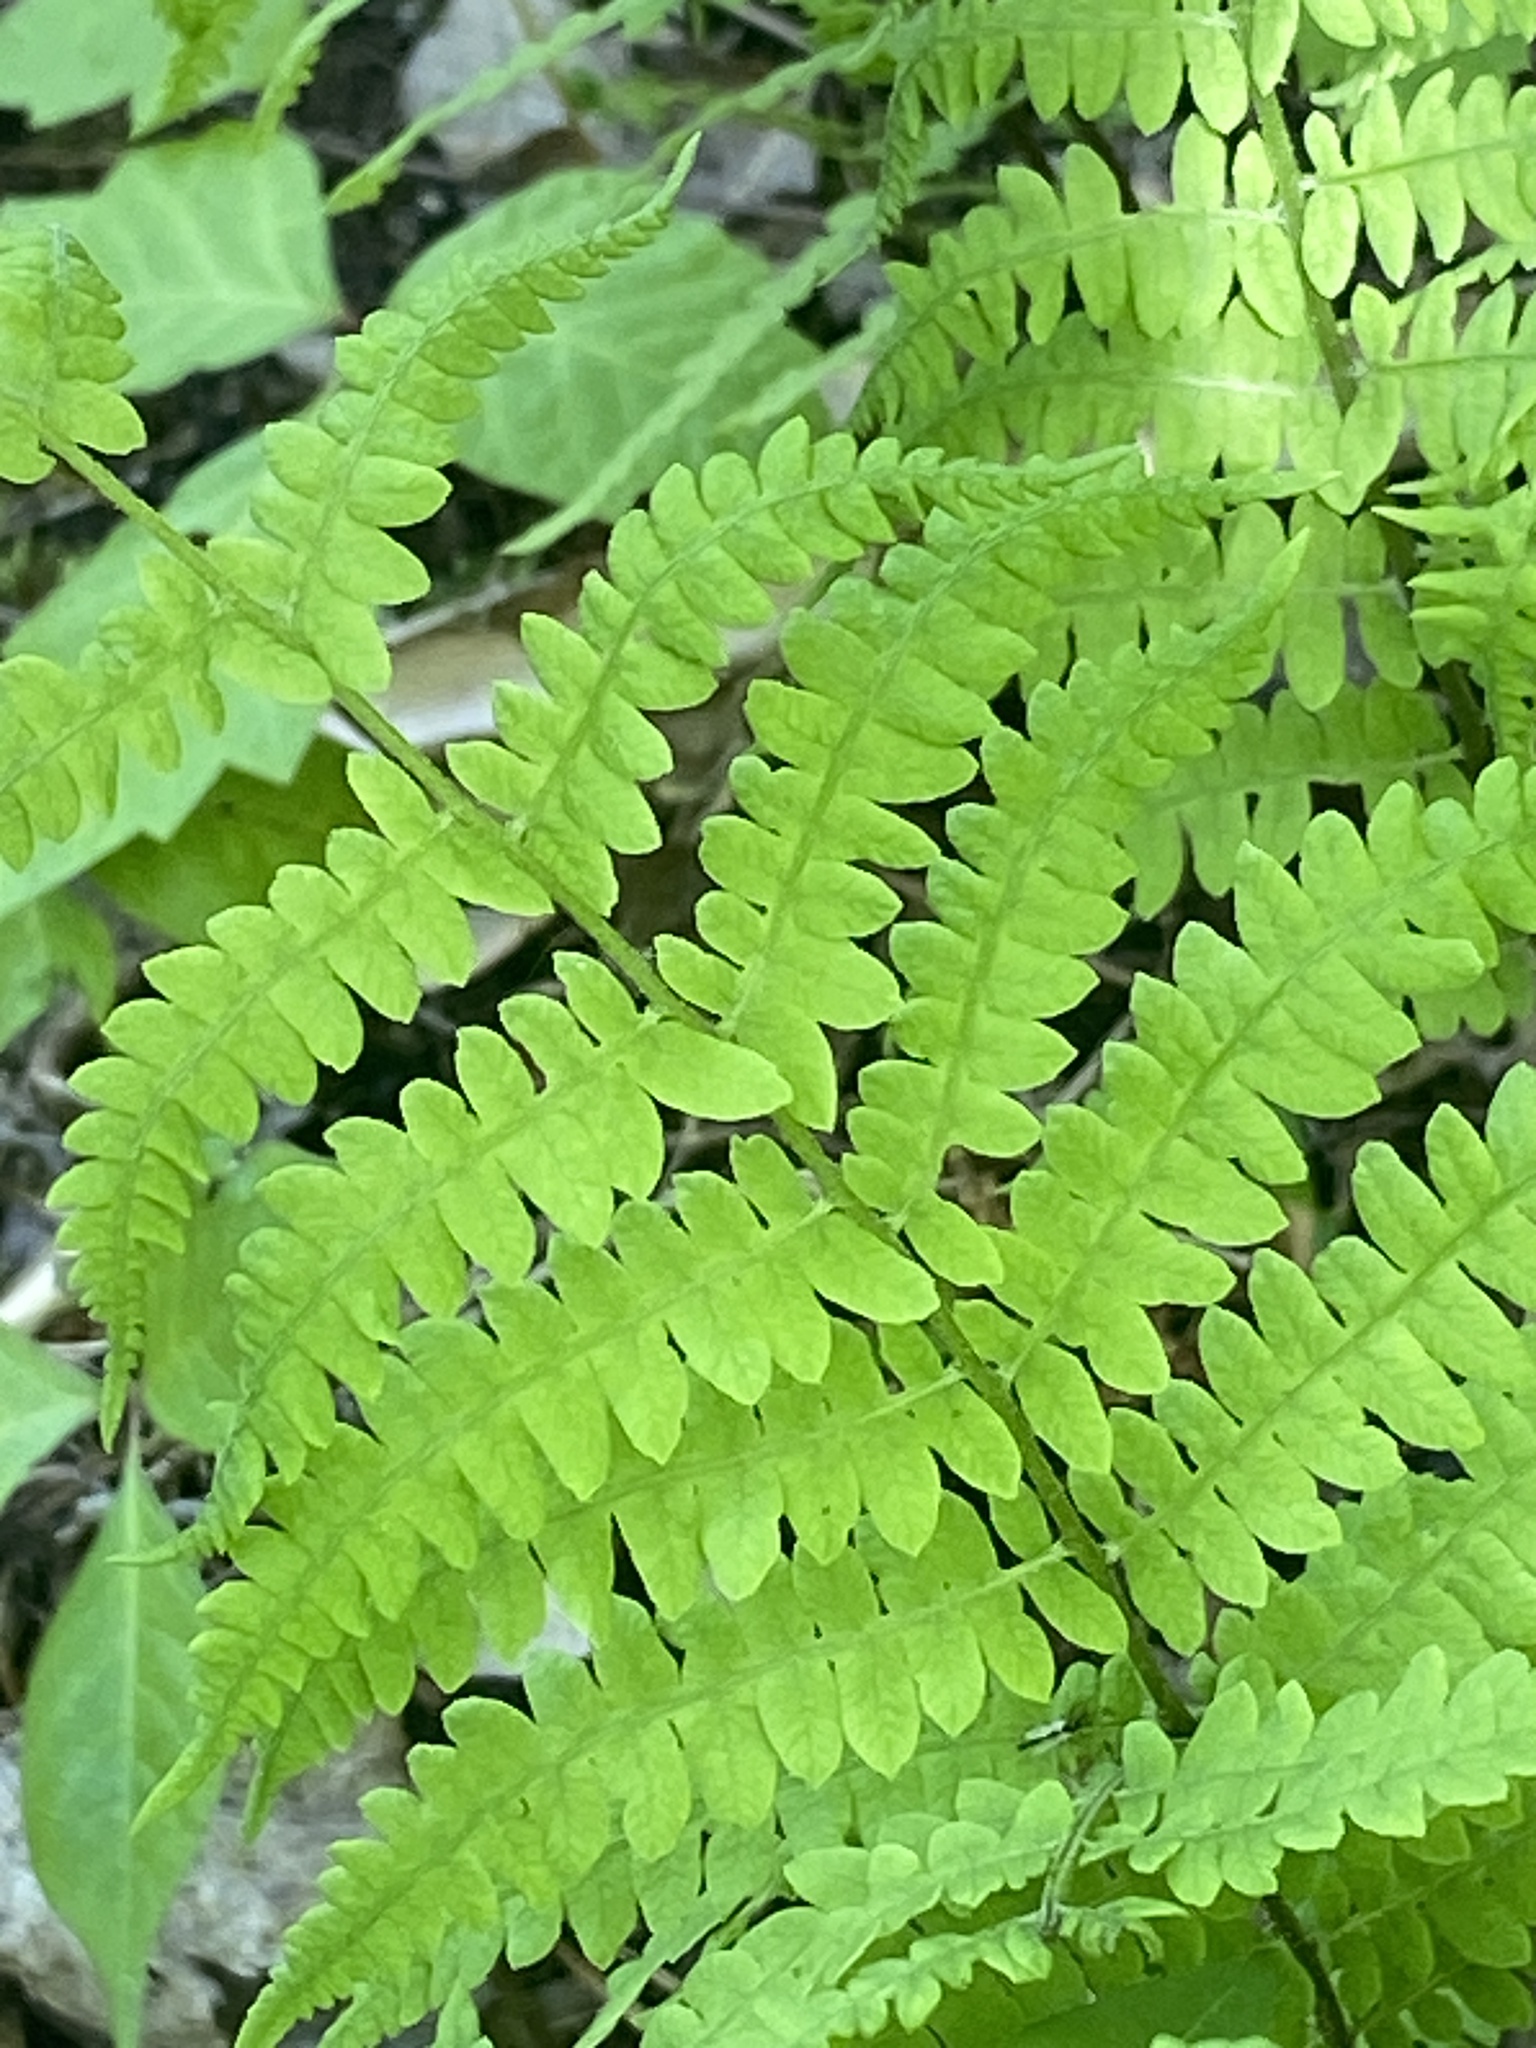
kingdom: Plantae
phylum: Tracheophyta
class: Polypodiopsida
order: Polypodiales
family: Thelypteridaceae
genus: Thelypteris
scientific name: Thelypteris palustris
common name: Marsh fern
